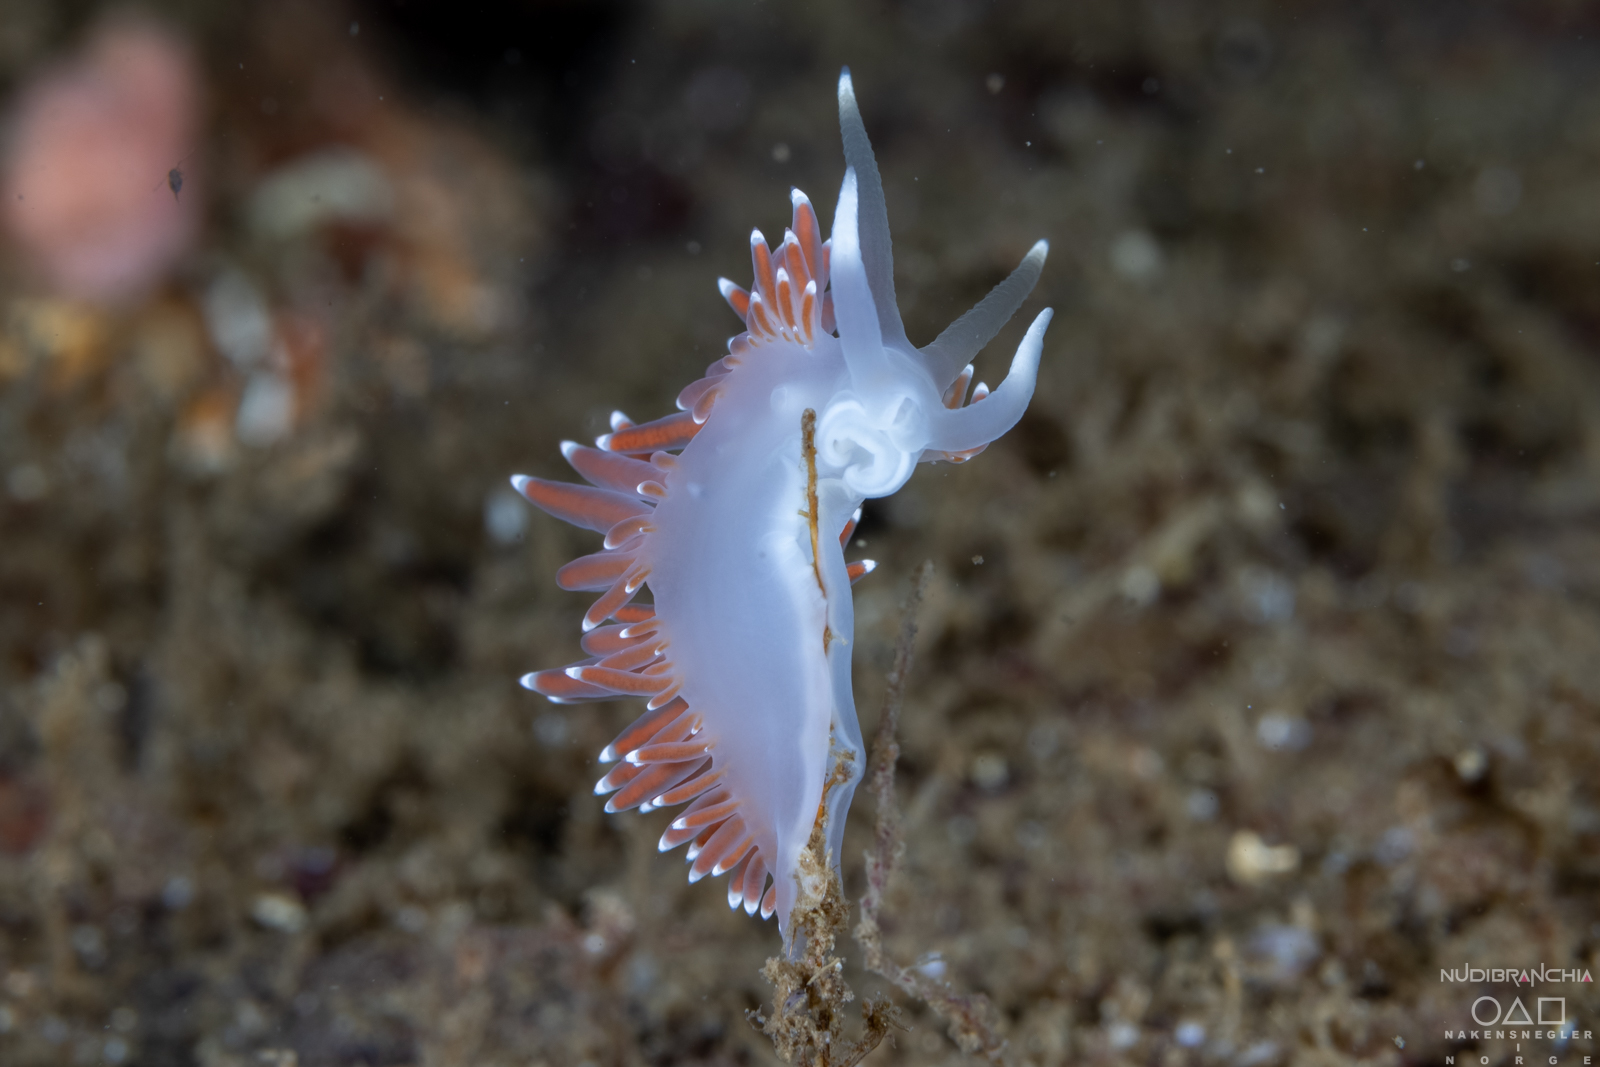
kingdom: Animalia
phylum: Mollusca
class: Gastropoda
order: Nudibranchia
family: Coryphellidae
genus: Coryphella
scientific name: Coryphella browni
